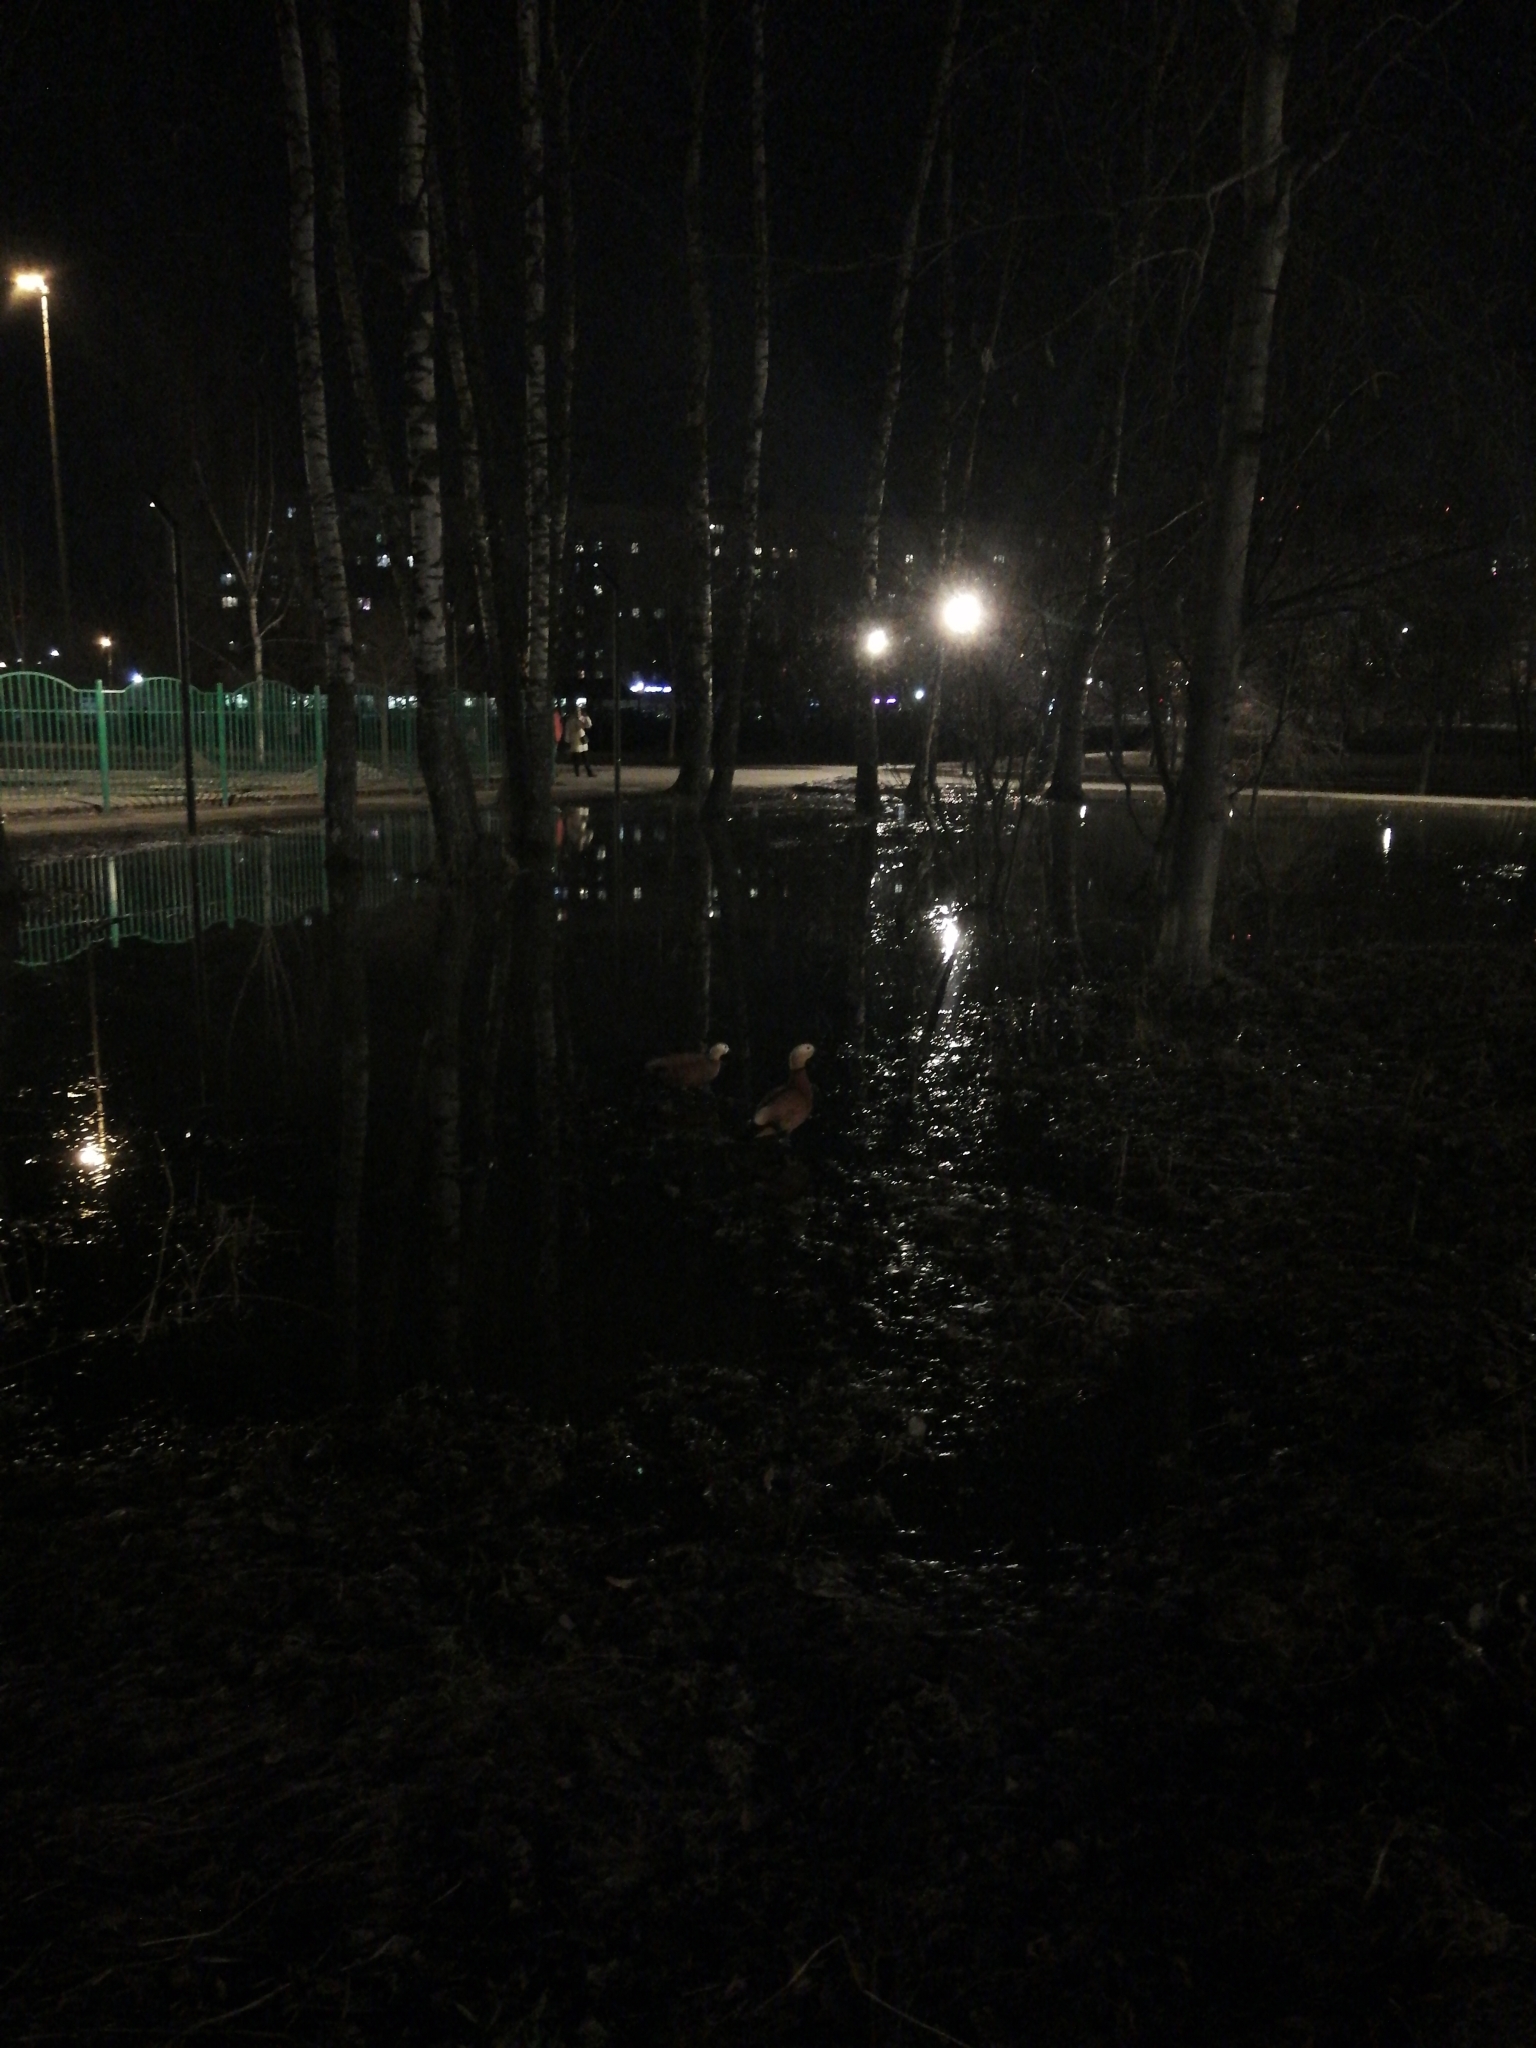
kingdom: Animalia
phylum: Chordata
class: Aves
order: Anseriformes
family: Anatidae
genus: Tadorna
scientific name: Tadorna ferruginea
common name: Ruddy shelduck
